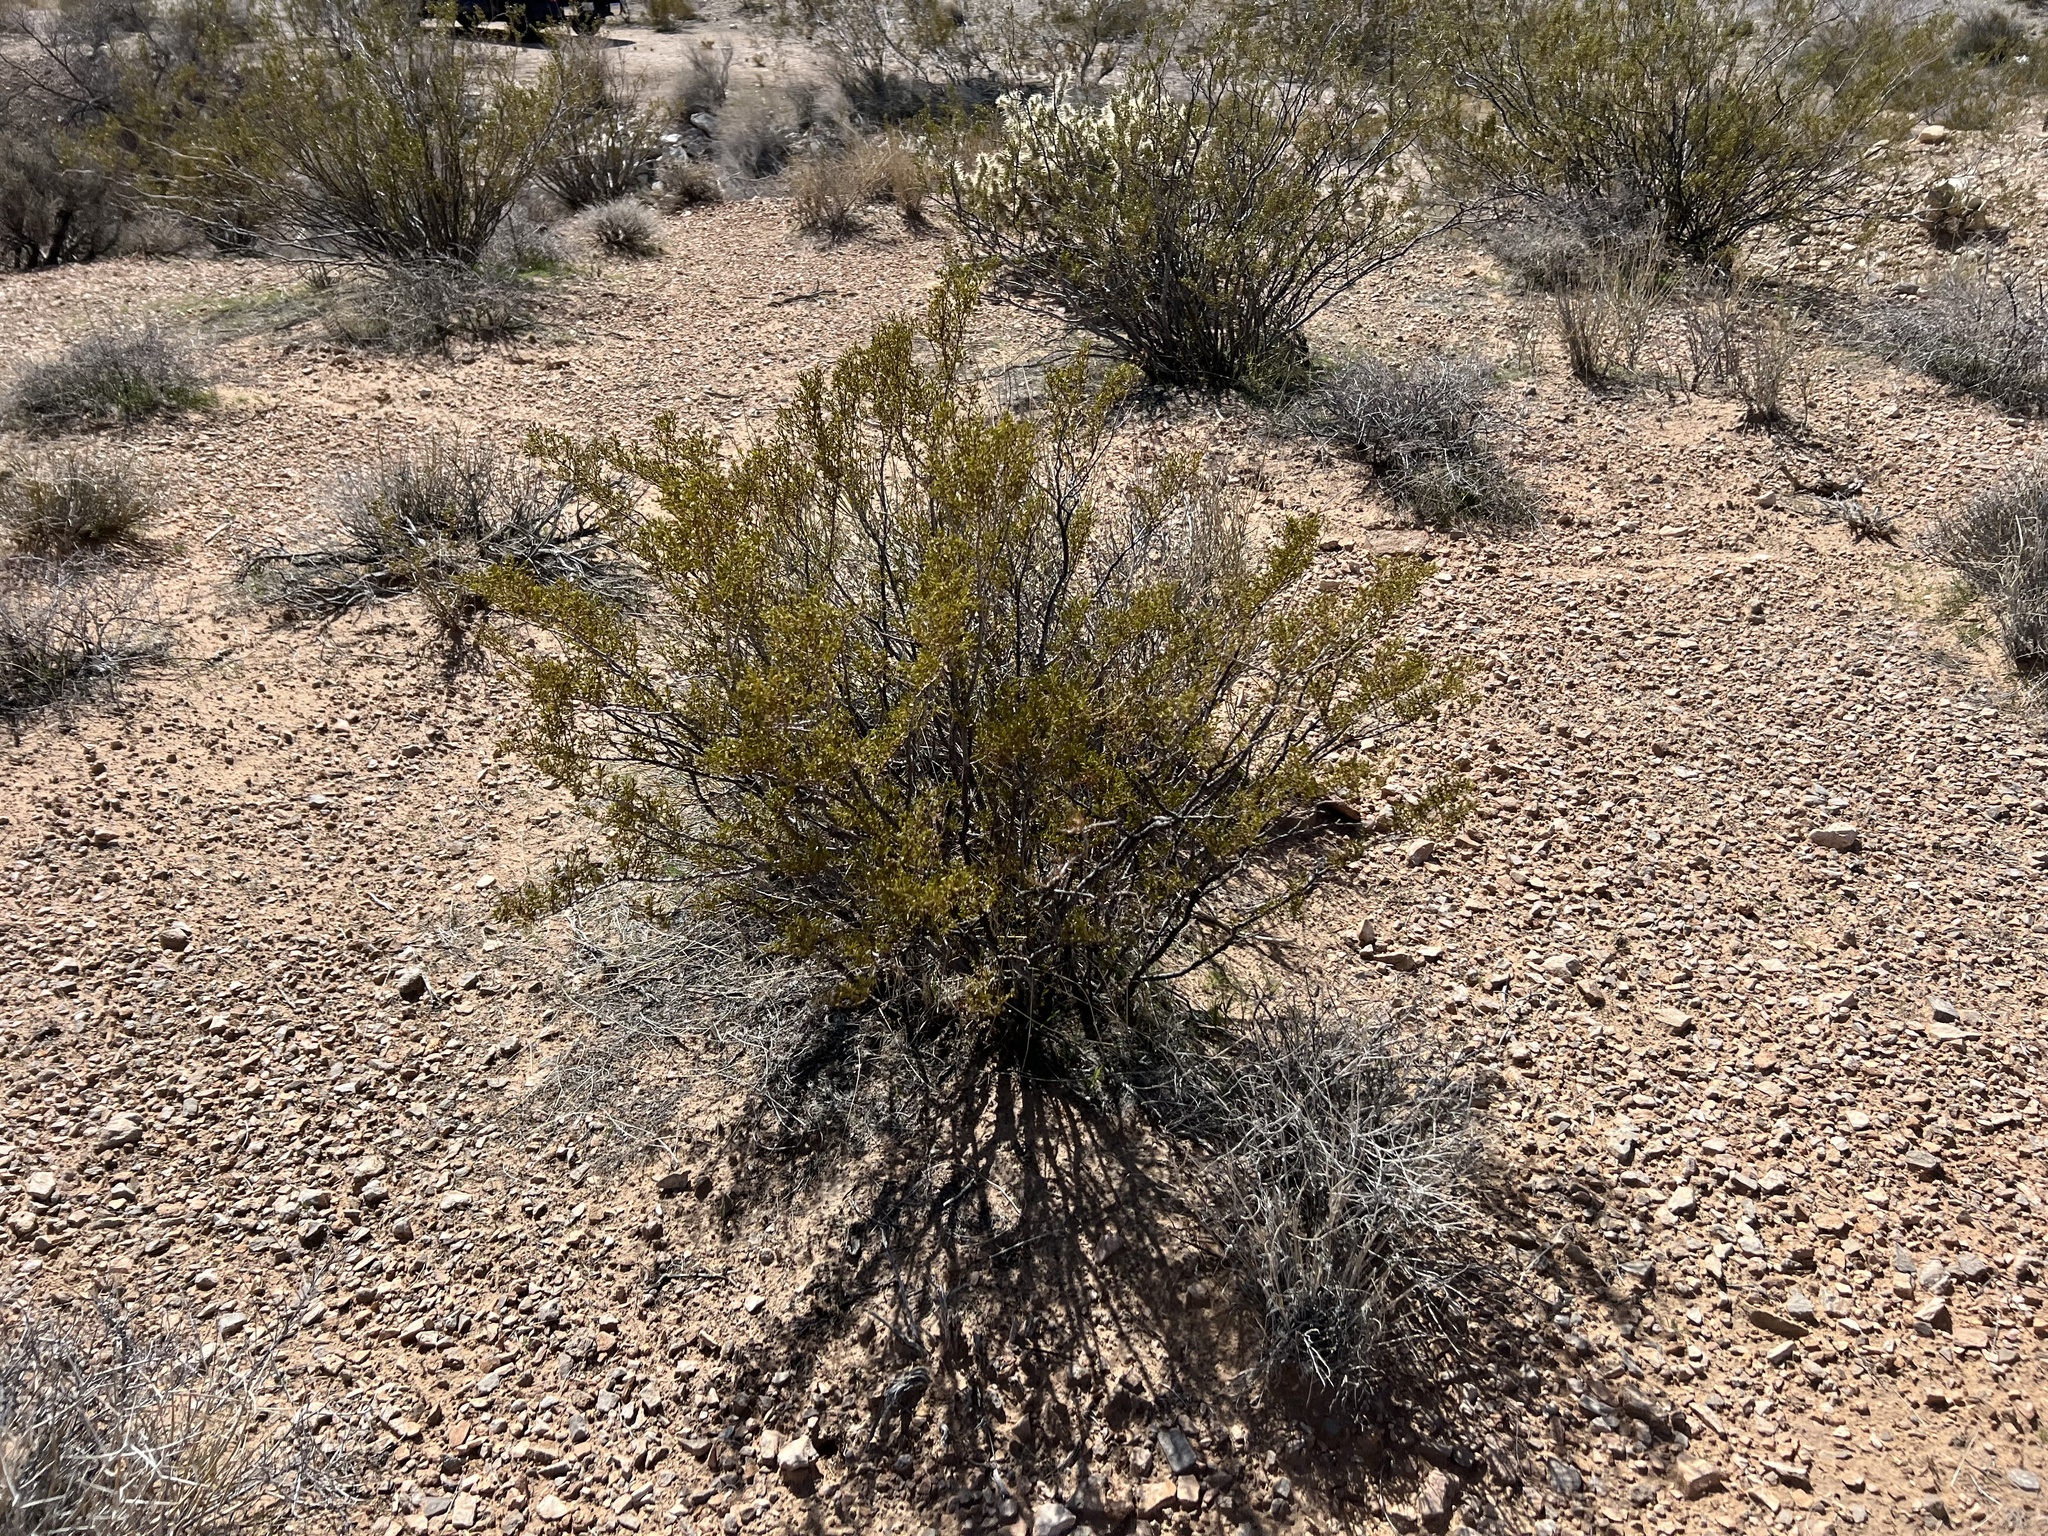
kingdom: Plantae
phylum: Tracheophyta
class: Magnoliopsida
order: Zygophyllales
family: Zygophyllaceae
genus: Larrea
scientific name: Larrea tridentata
